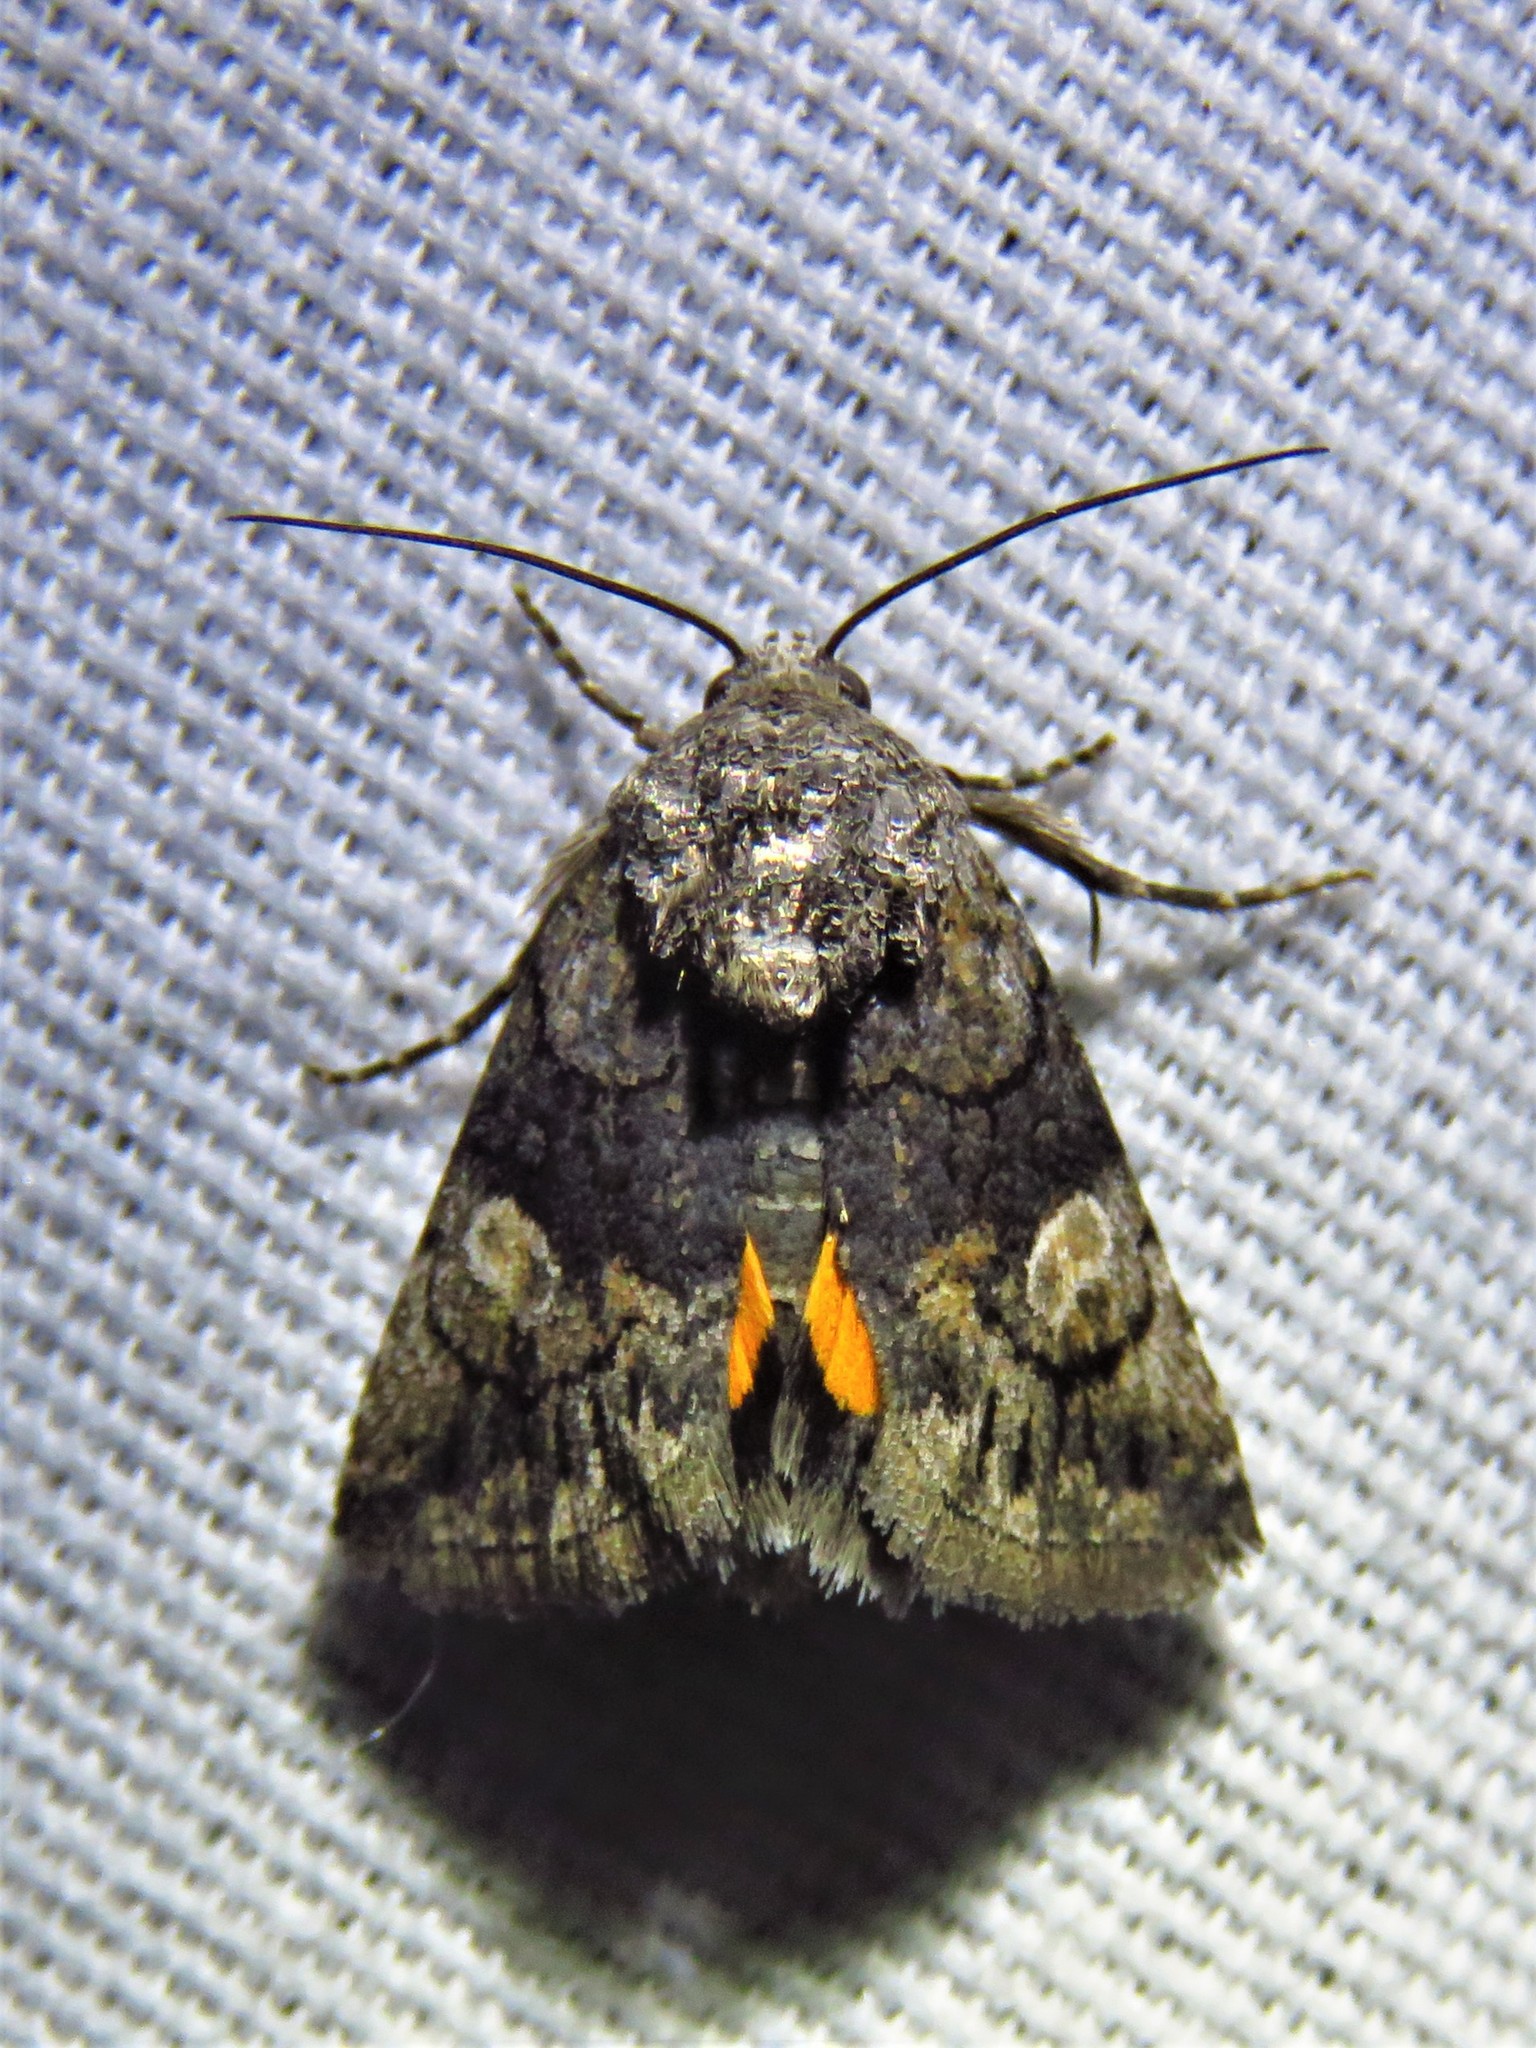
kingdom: Animalia
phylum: Arthropoda
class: Insecta
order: Lepidoptera
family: Noctuidae
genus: Copanarta
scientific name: Copanarta aurea
